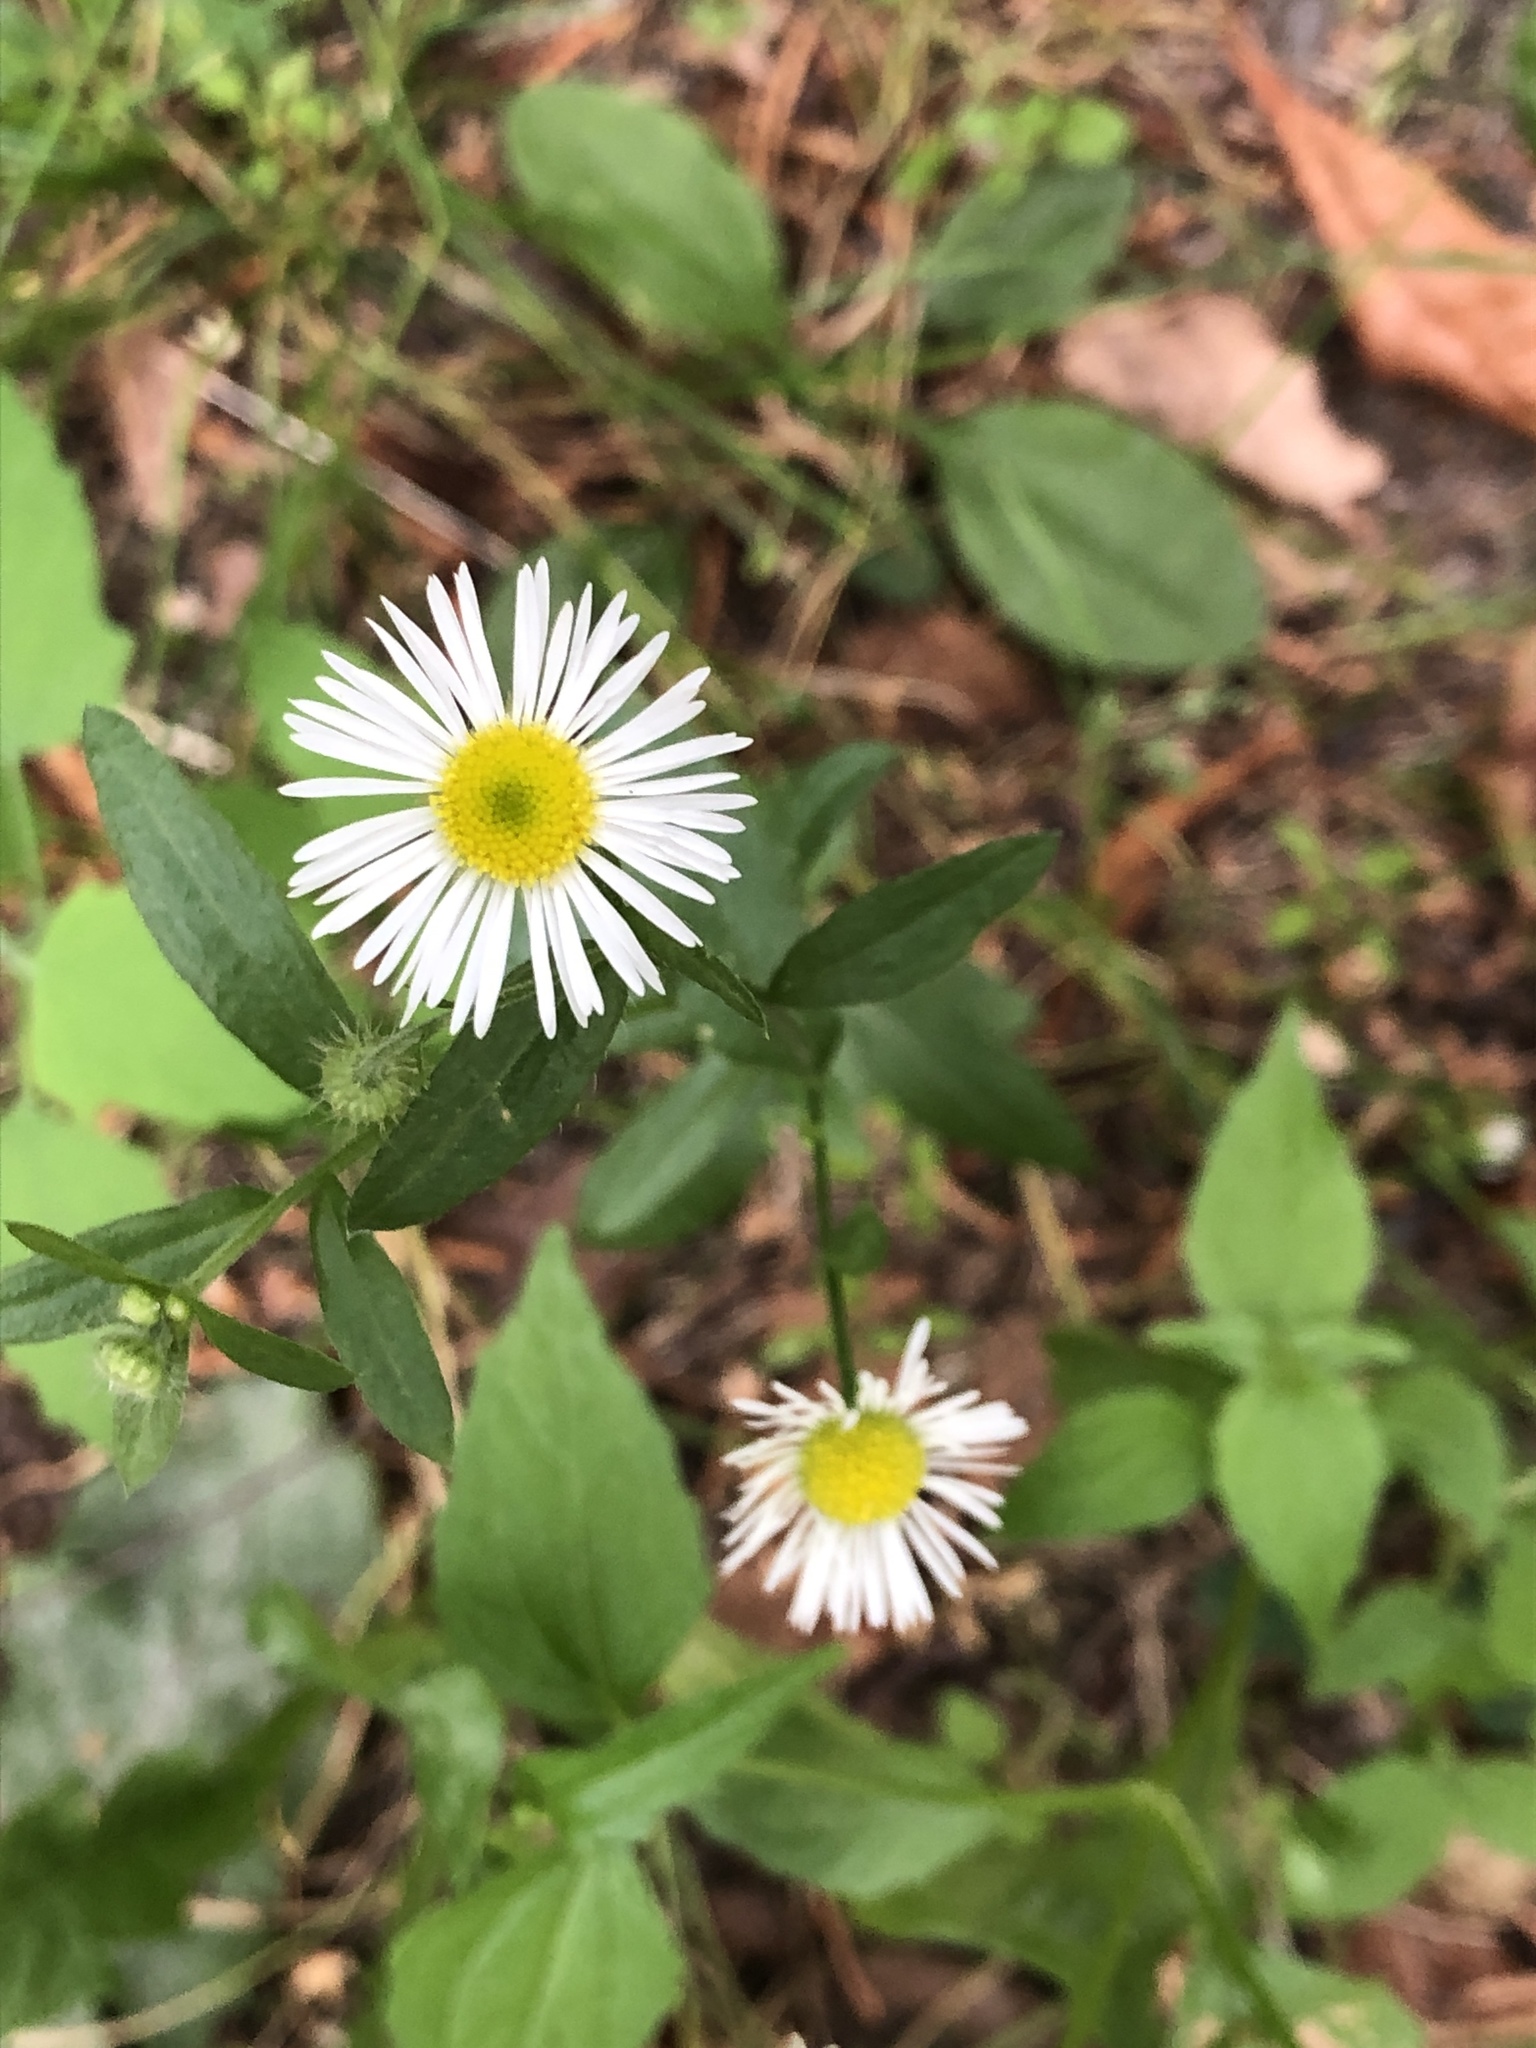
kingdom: Plantae
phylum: Tracheophyta
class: Magnoliopsida
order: Asterales
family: Asteraceae
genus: Erigeron
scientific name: Erigeron annuus
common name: Tall fleabane
